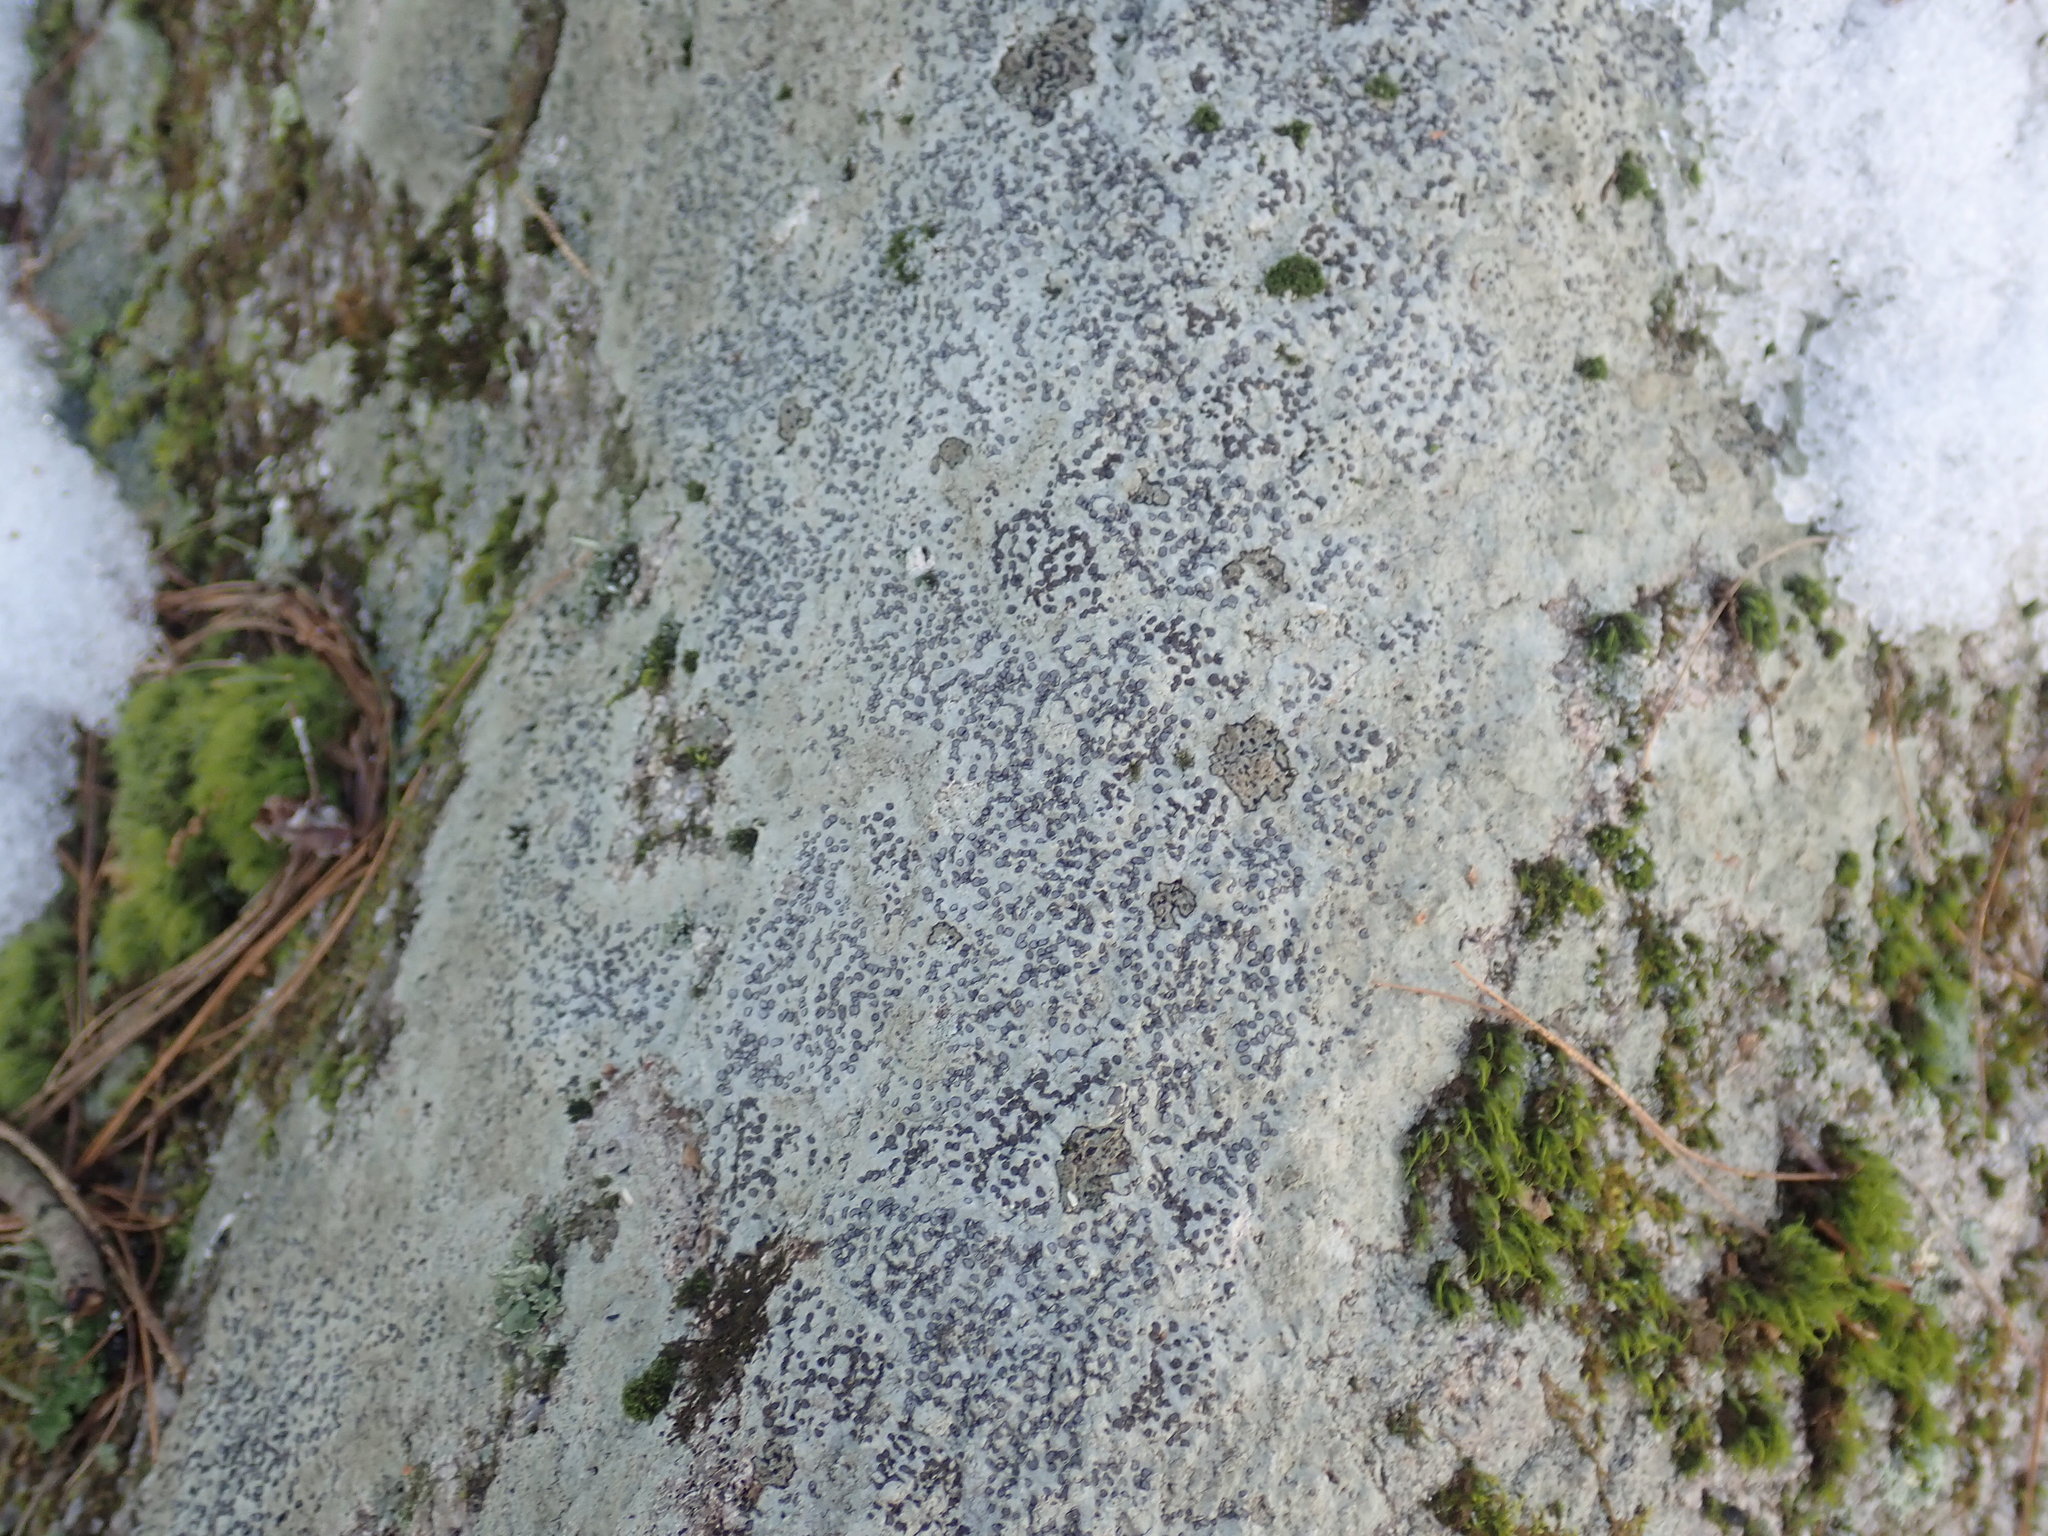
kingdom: Fungi
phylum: Ascomycota
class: Lecanoromycetes
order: Lecideales
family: Lecideaceae
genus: Porpidia
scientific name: Porpidia albocaerulescens
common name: Smokey-eyed boulder lichen
